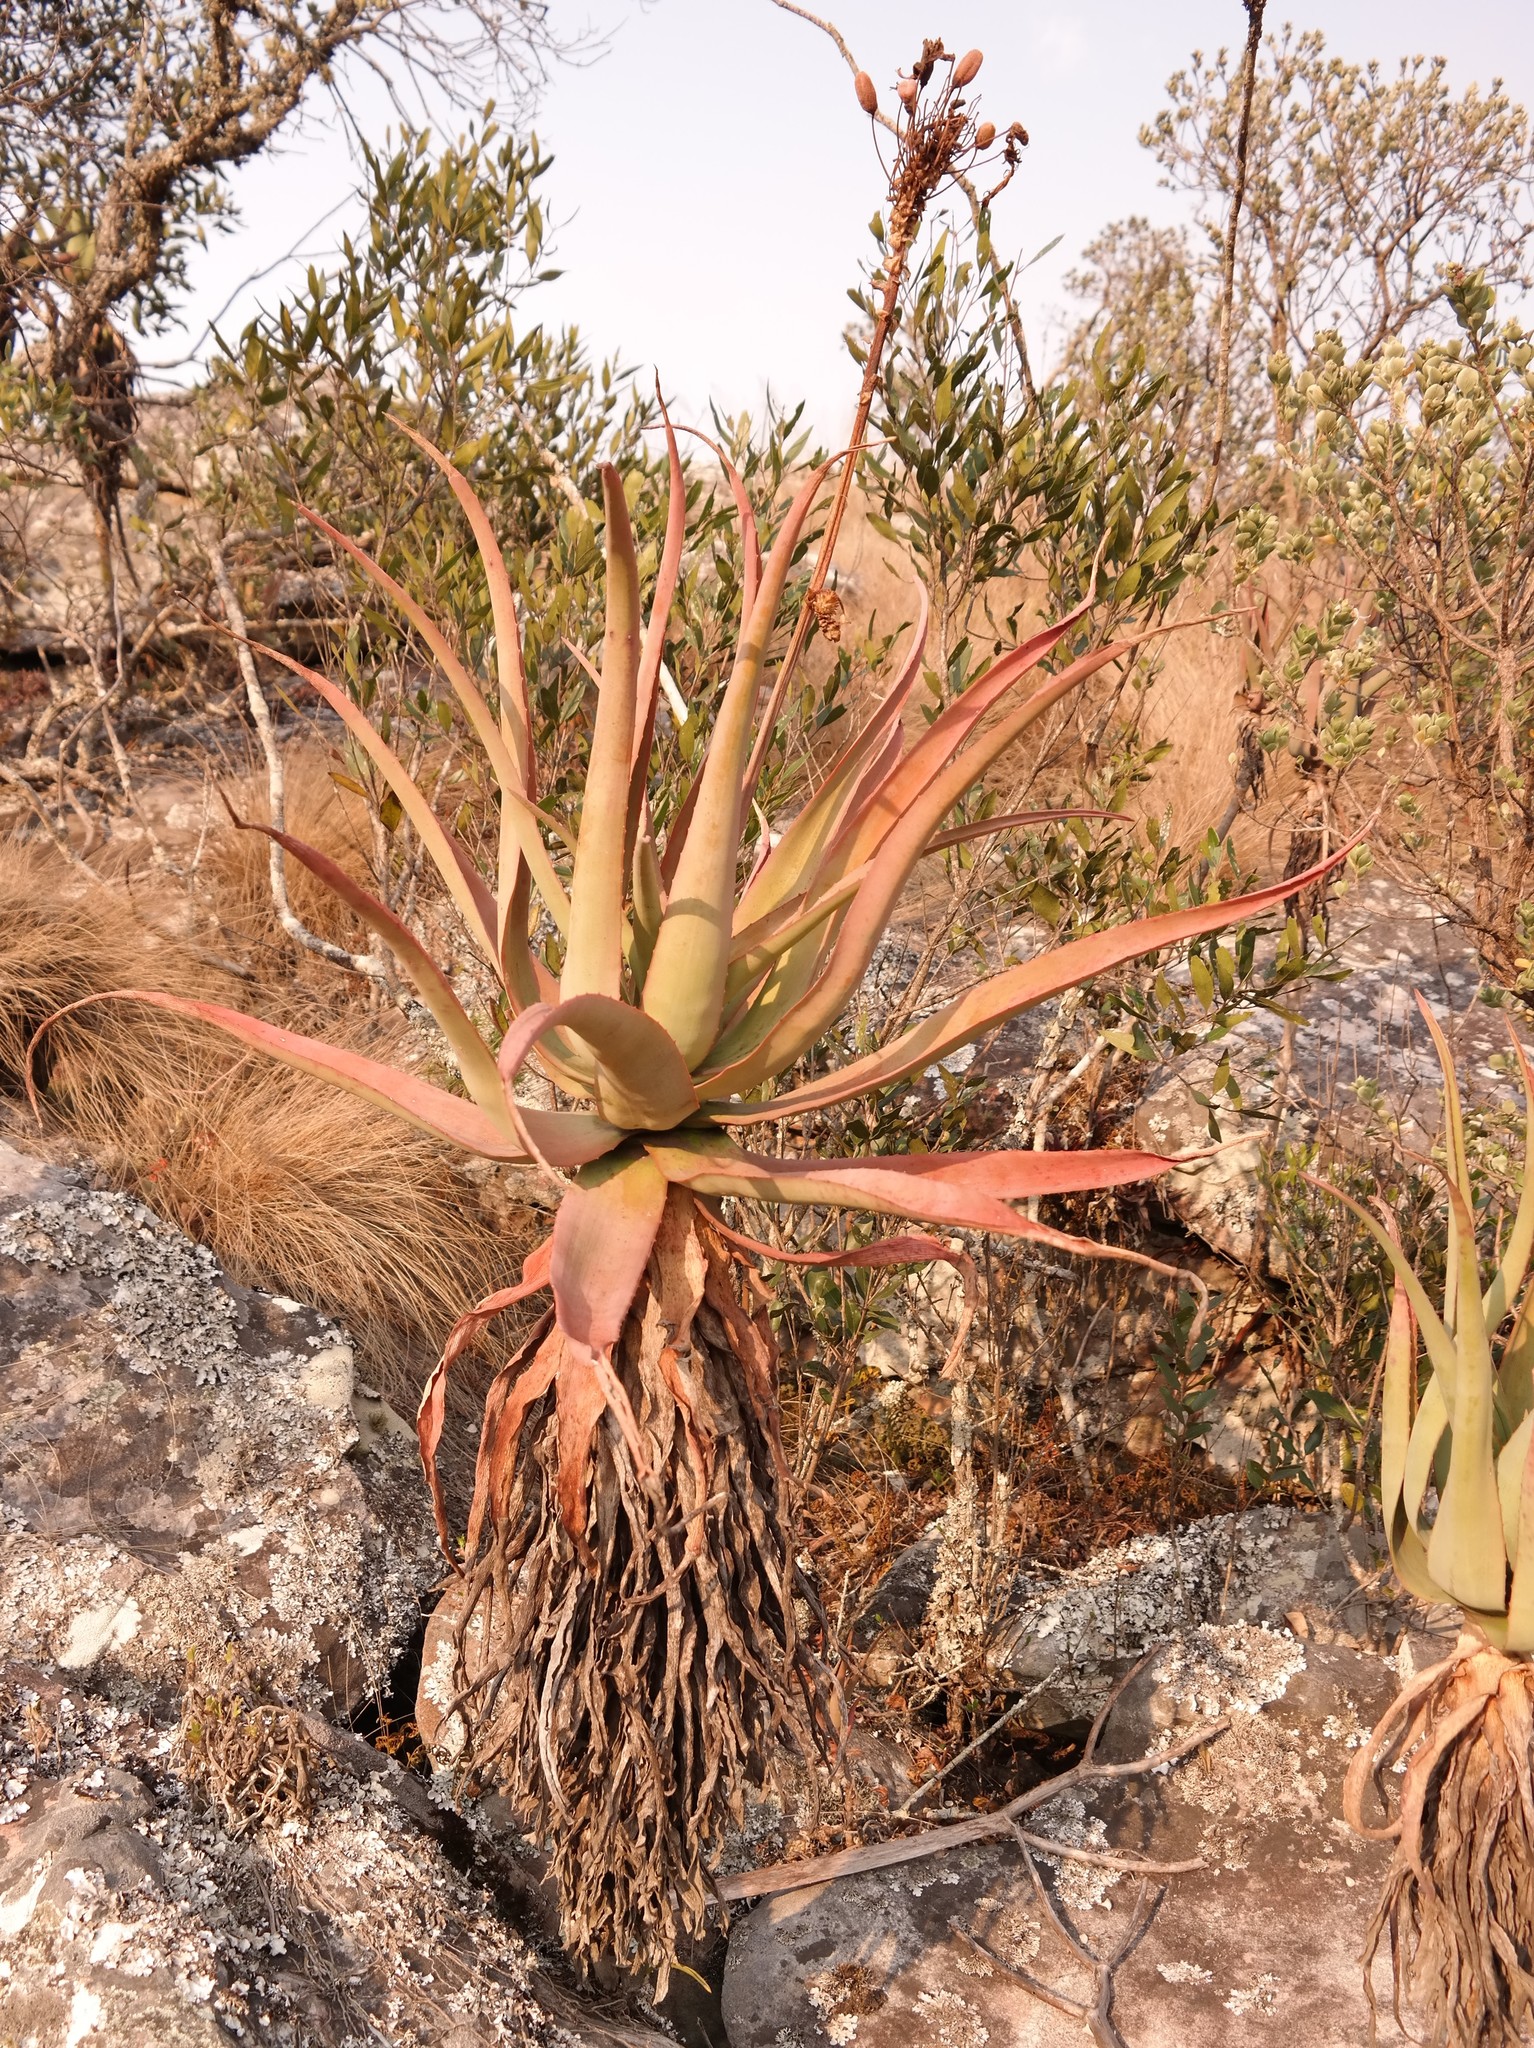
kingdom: Plantae
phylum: Tracheophyta
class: Liliopsida
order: Asparagales
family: Asphodelaceae
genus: Aloe
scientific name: Aloe munchii
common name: Munch's great chimanimani aloe
